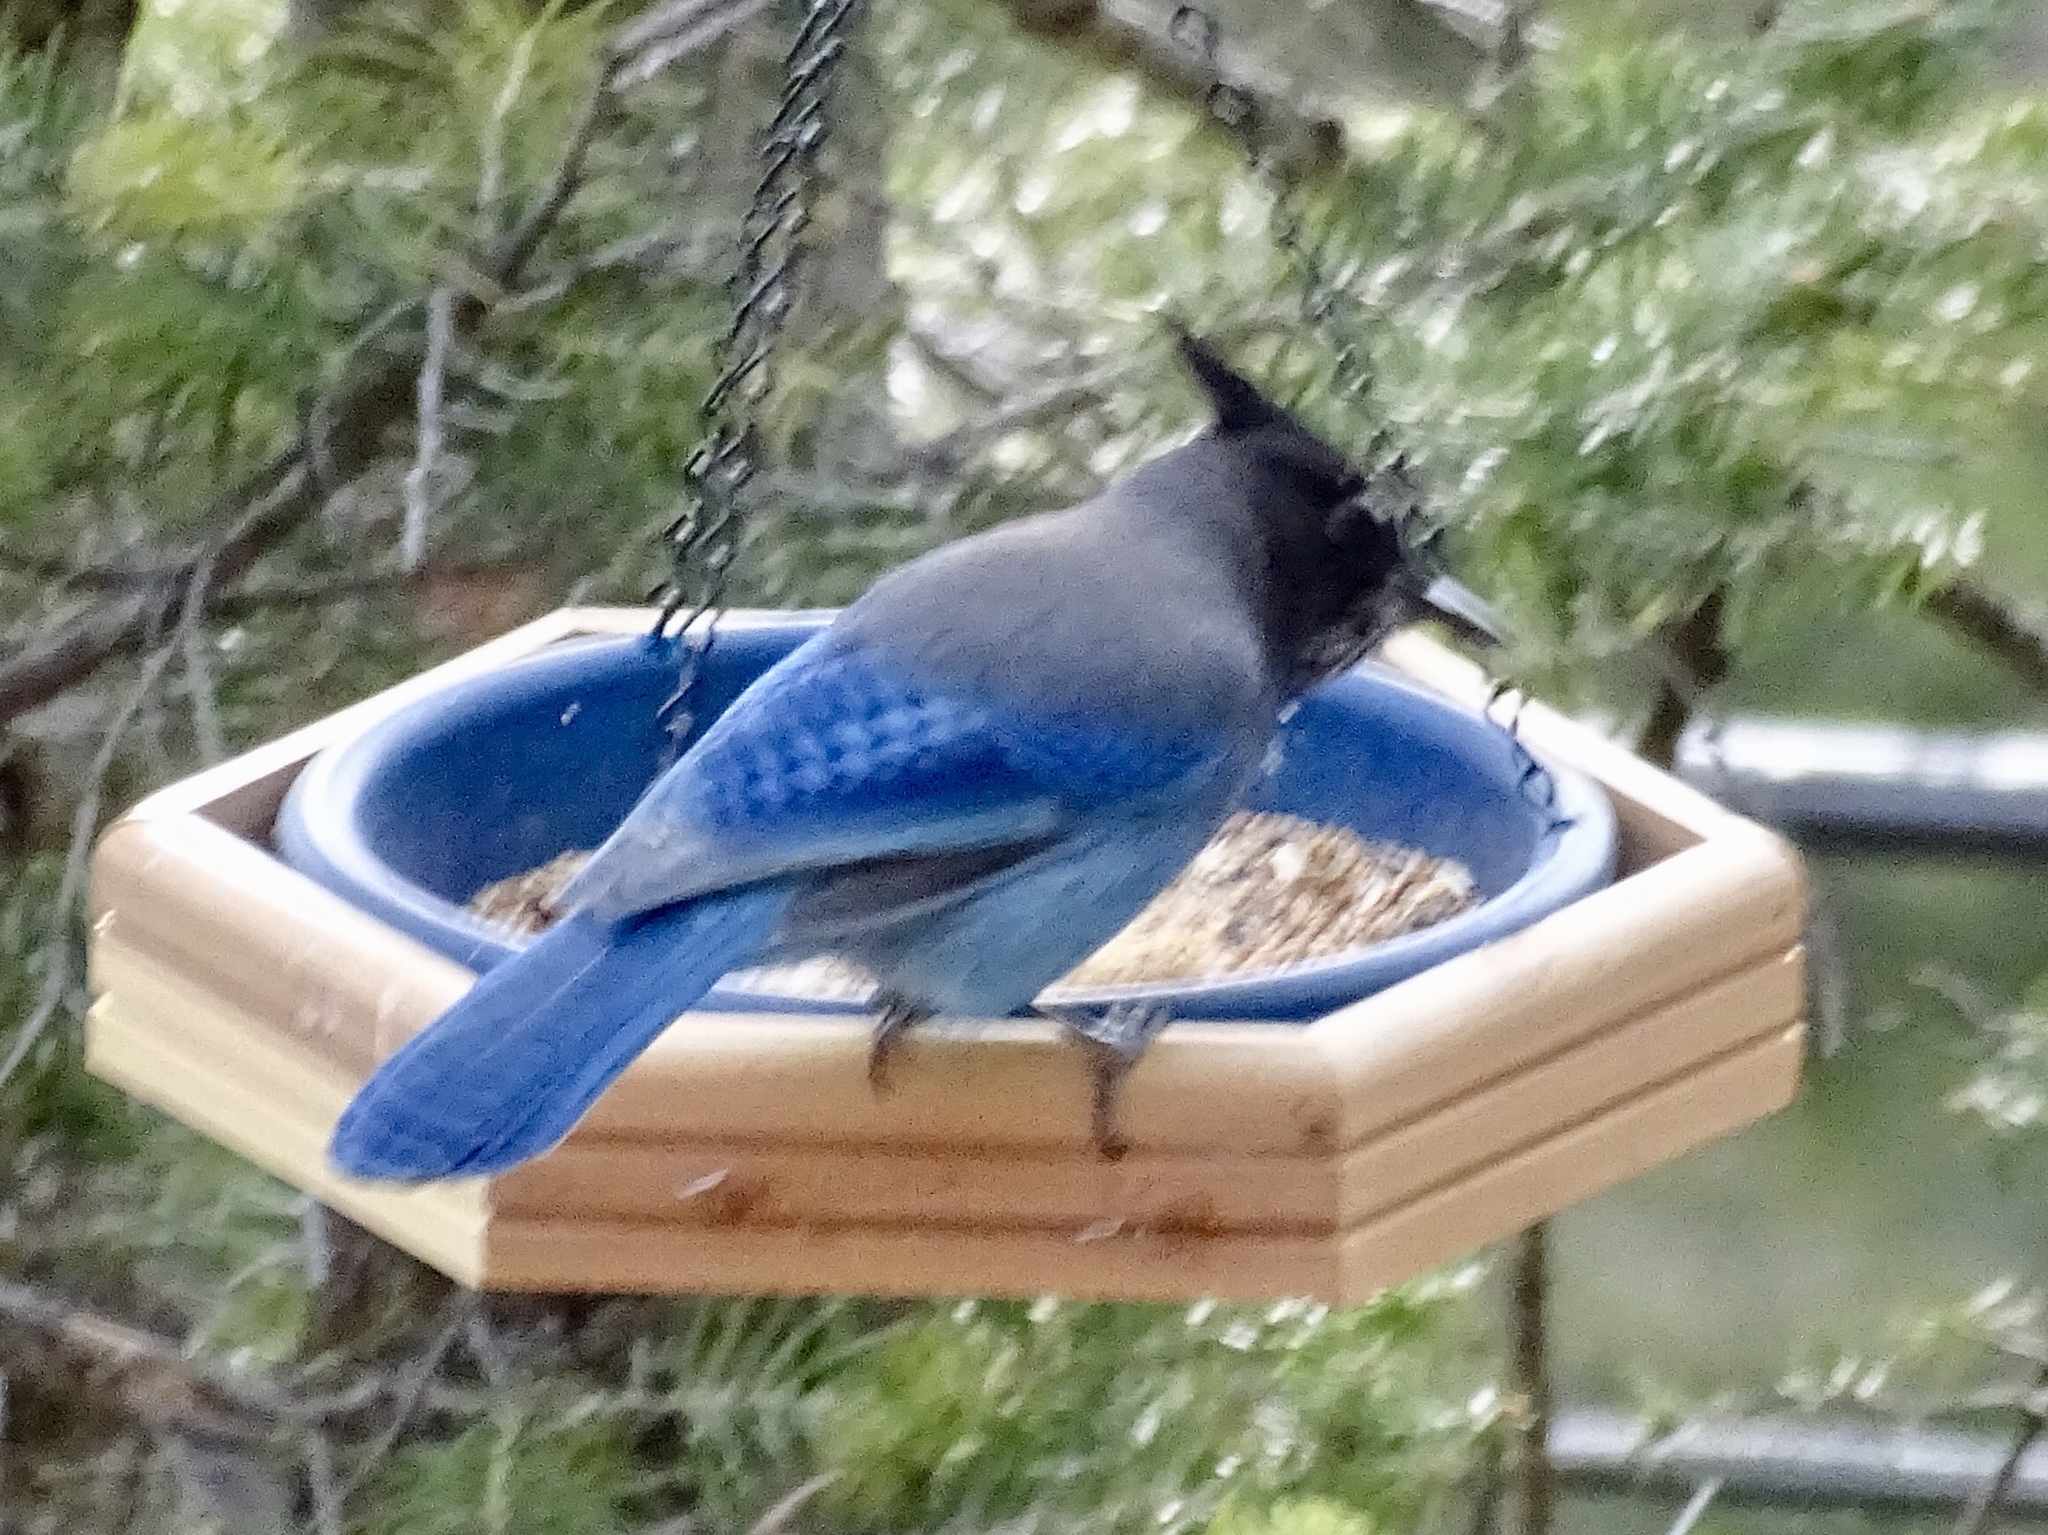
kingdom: Animalia
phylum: Chordata
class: Aves
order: Passeriformes
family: Corvidae
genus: Cyanocitta
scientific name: Cyanocitta stelleri
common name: Steller's jay
